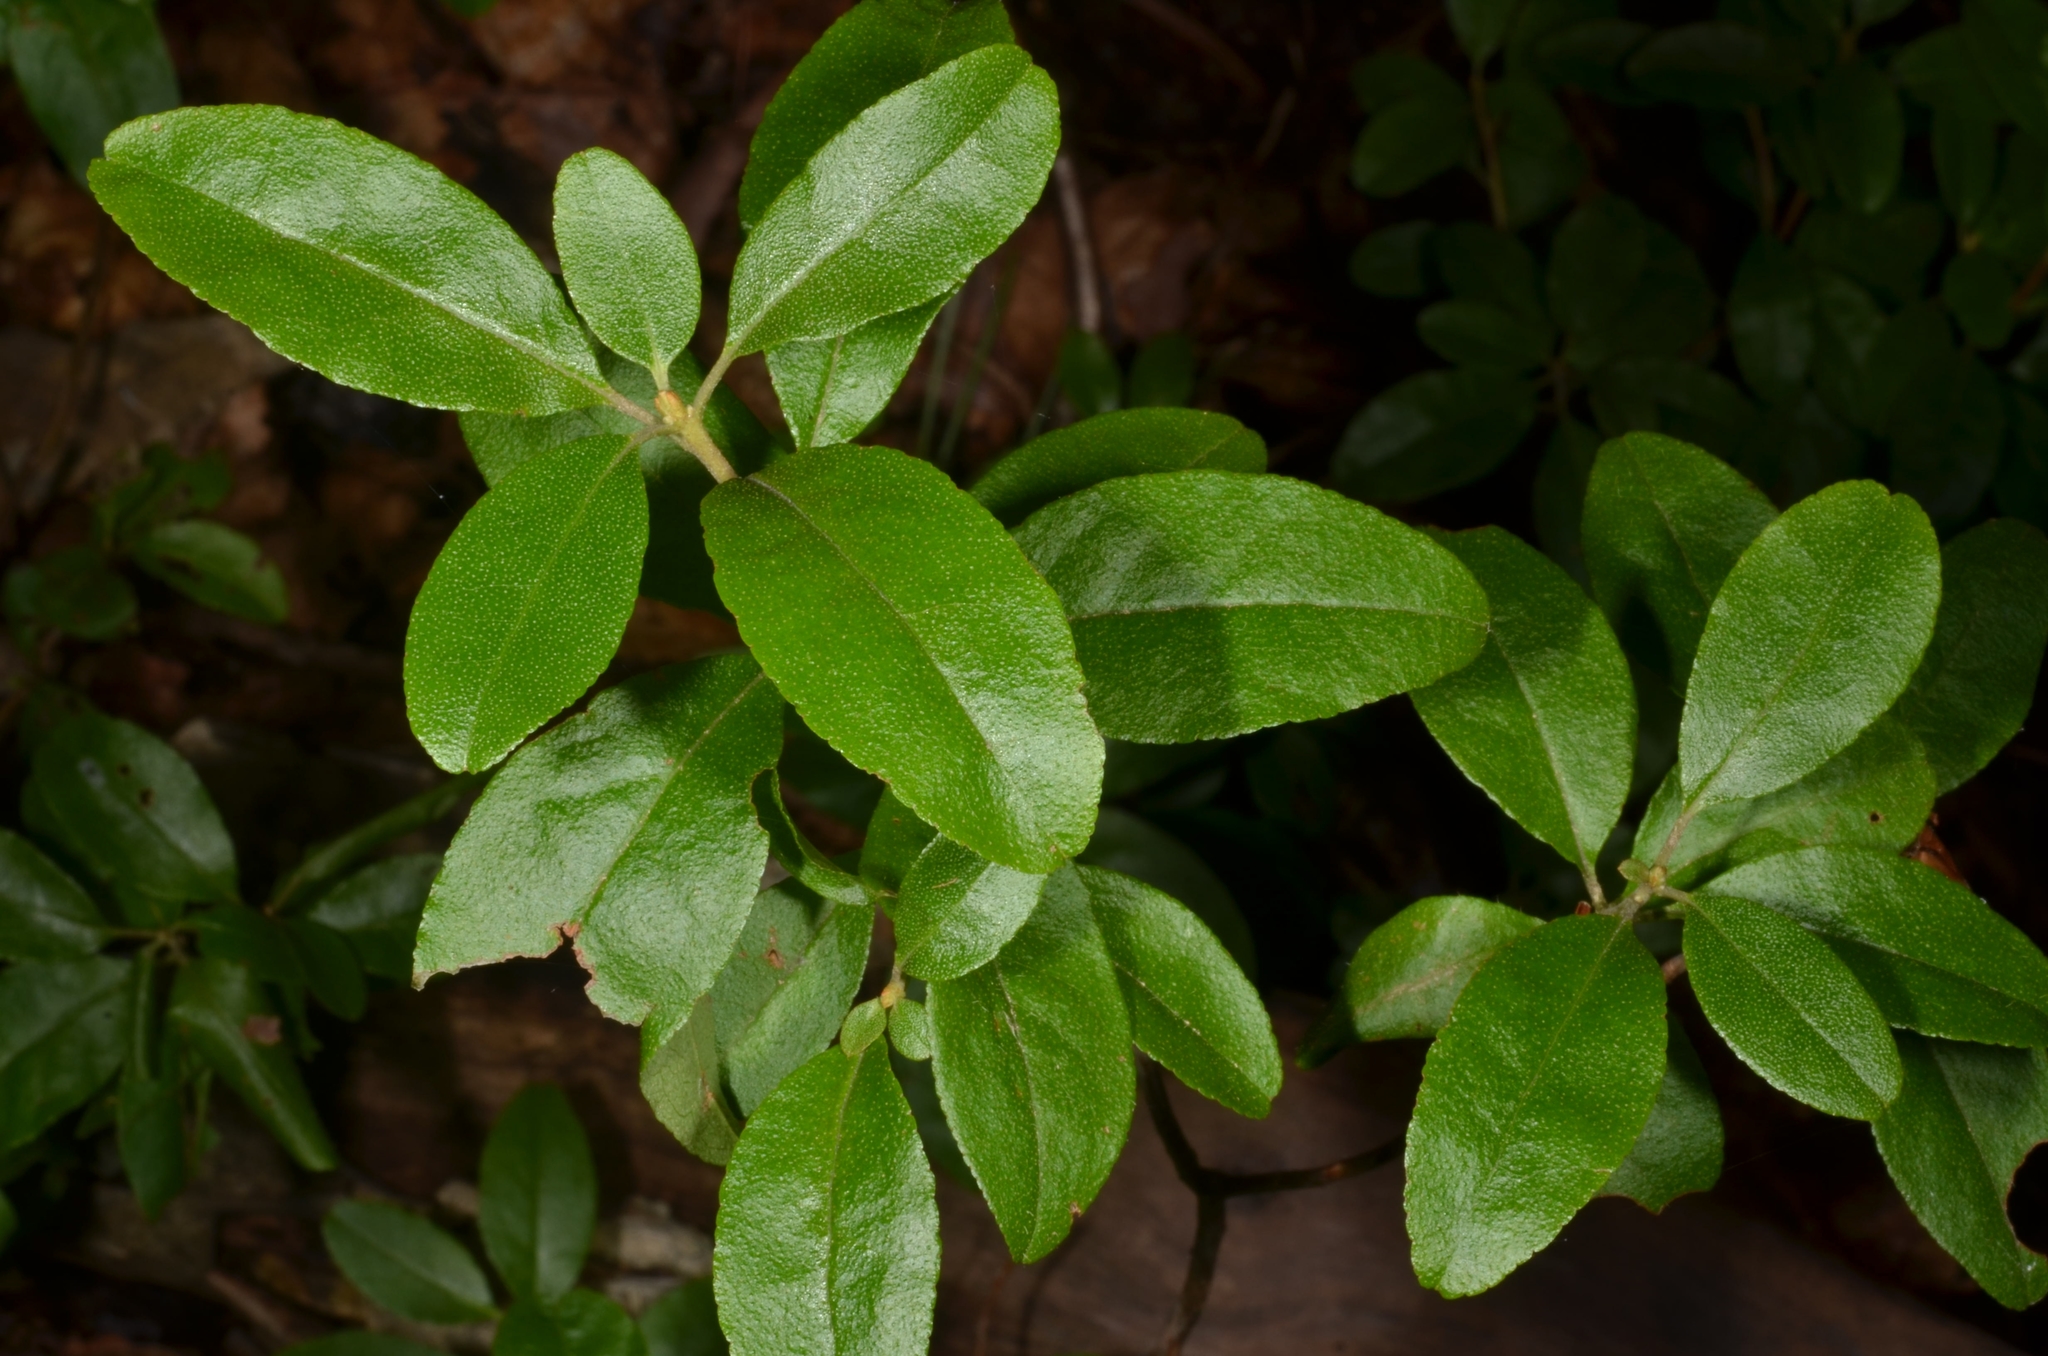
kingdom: Plantae
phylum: Tracheophyta
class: Magnoliopsida
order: Ericales
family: Ericaceae
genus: Rhododendron
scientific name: Rhododendron mucronulatum
